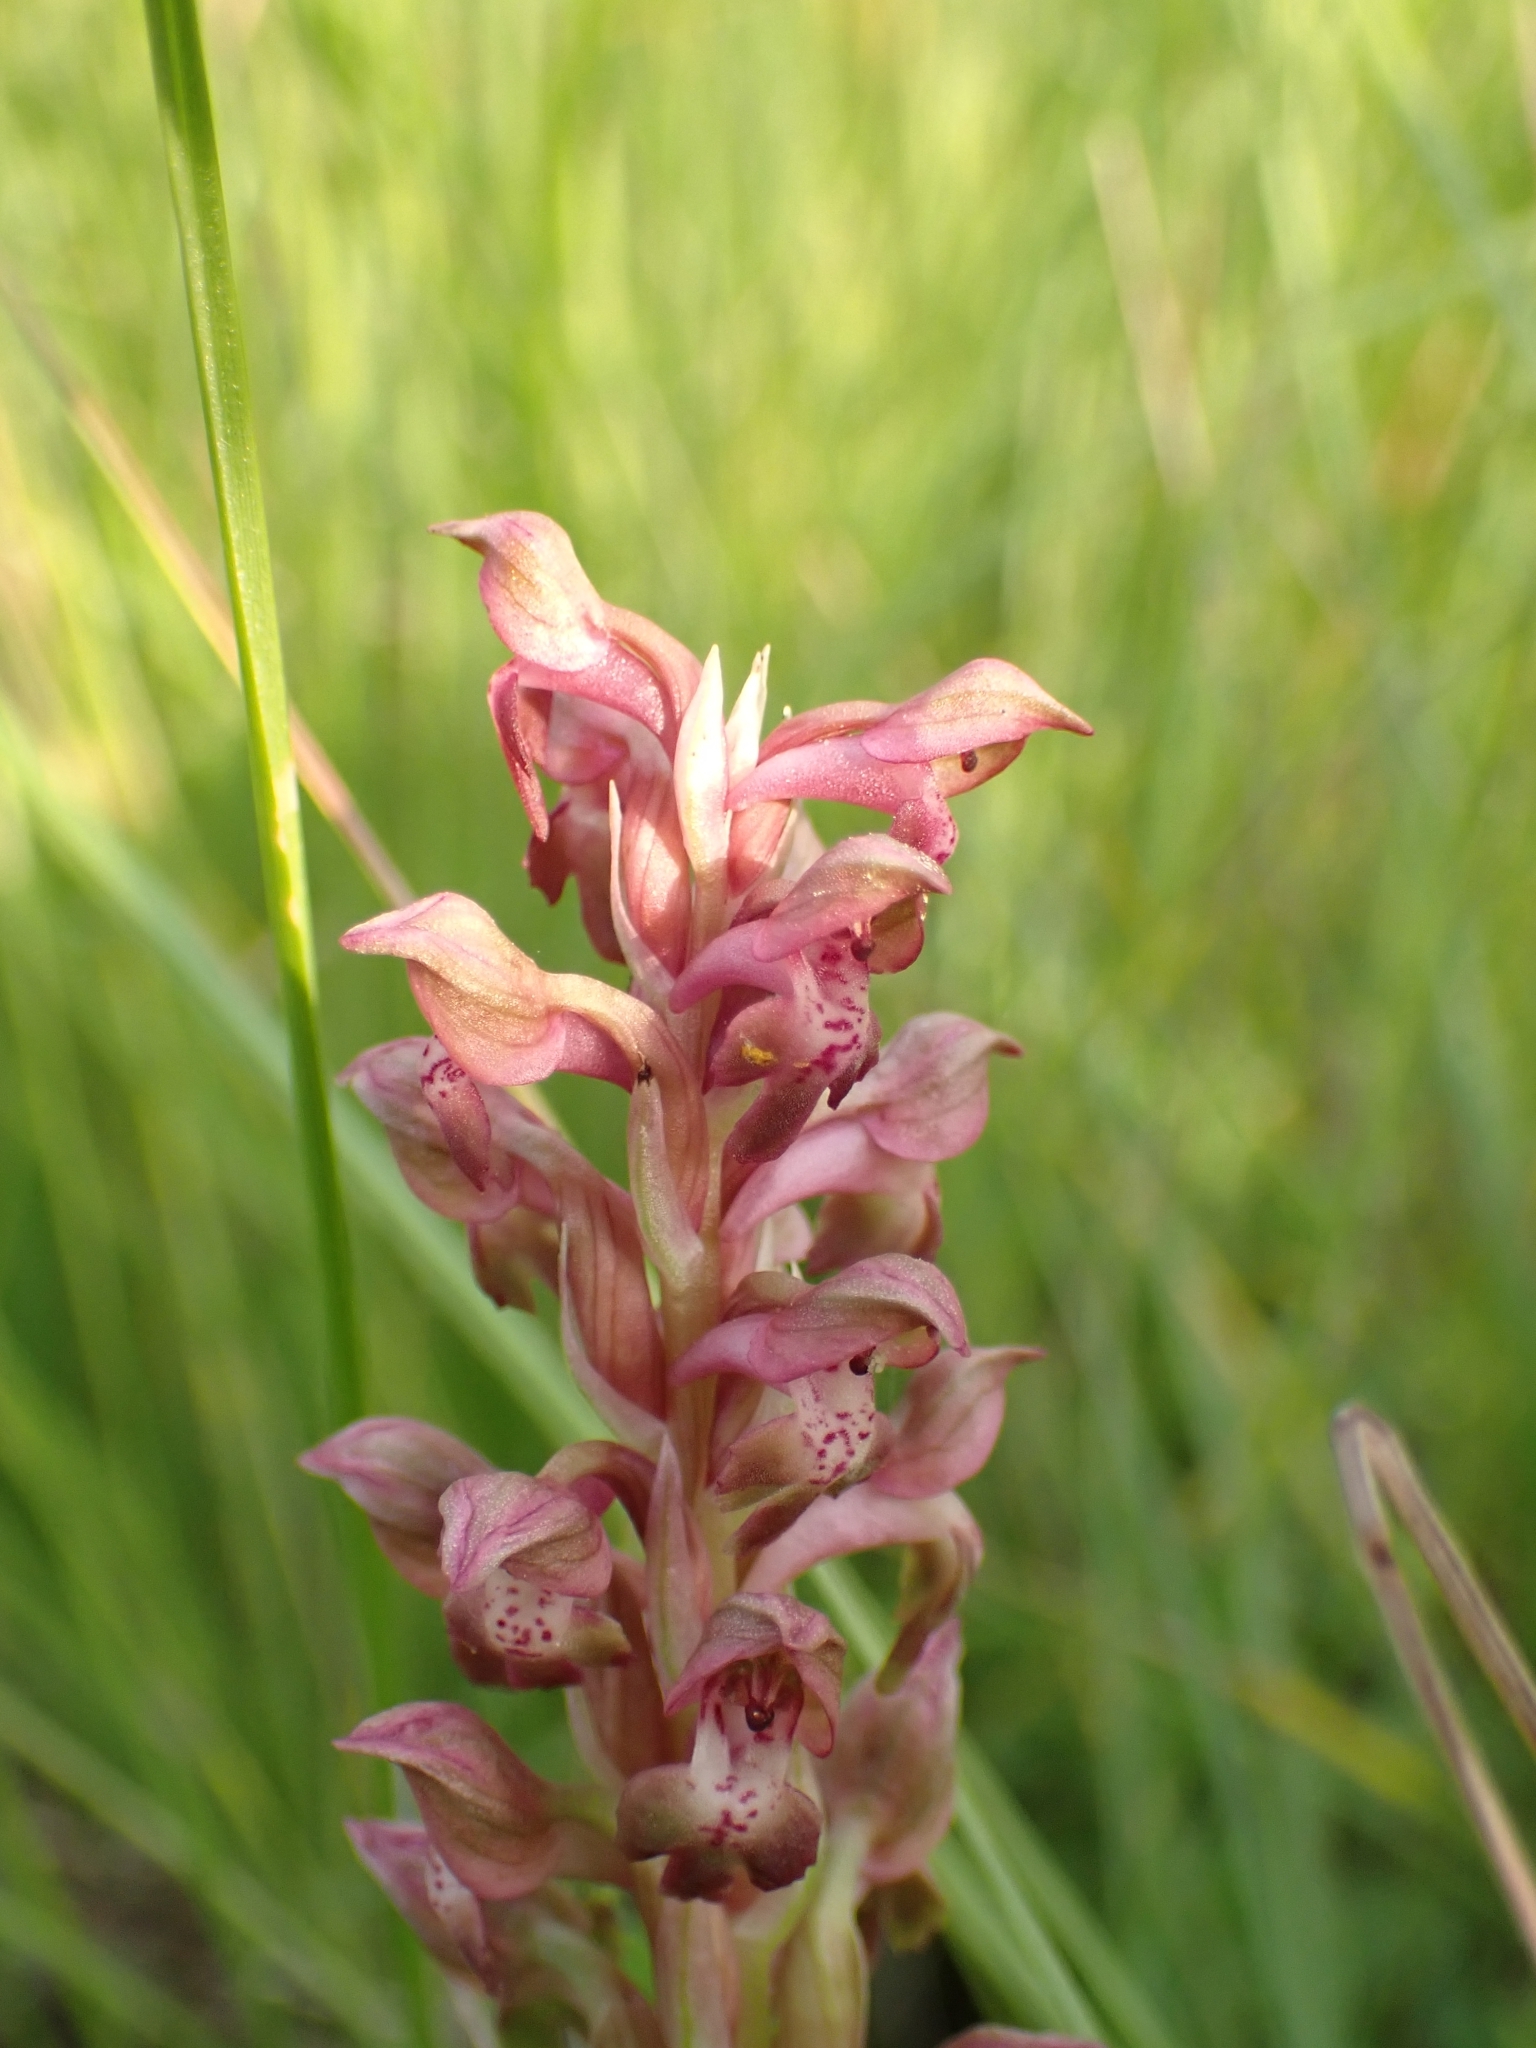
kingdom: Plantae
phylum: Tracheophyta
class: Liliopsida
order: Asparagales
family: Orchidaceae
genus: Anacamptis
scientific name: Anacamptis coriophora
